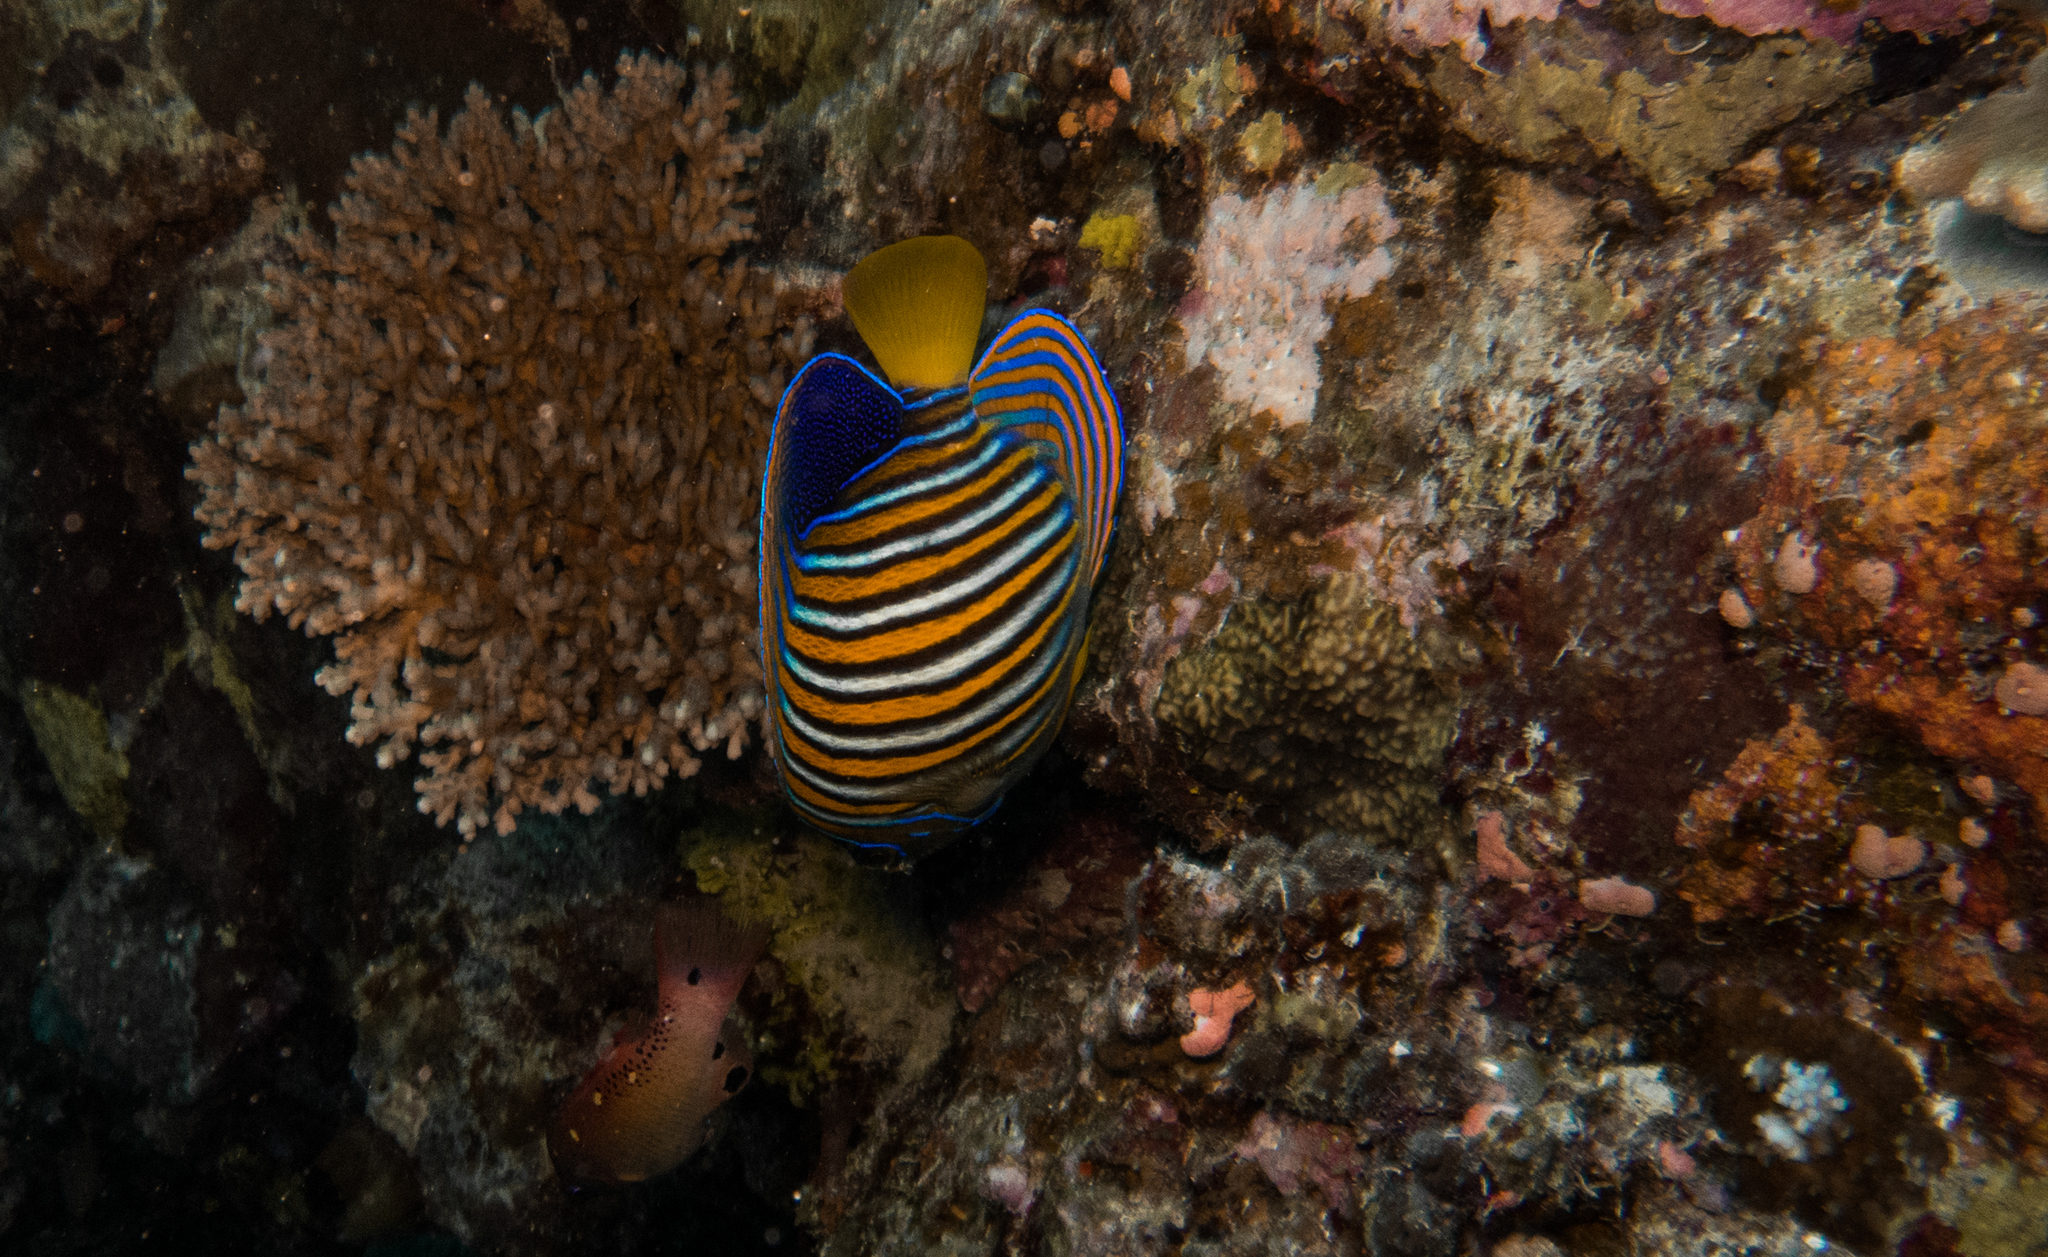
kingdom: Animalia
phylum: Chordata
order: Perciformes
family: Pomacanthidae
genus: Pygoplites
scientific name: Pygoplites diacanthus
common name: Regal angelfish
